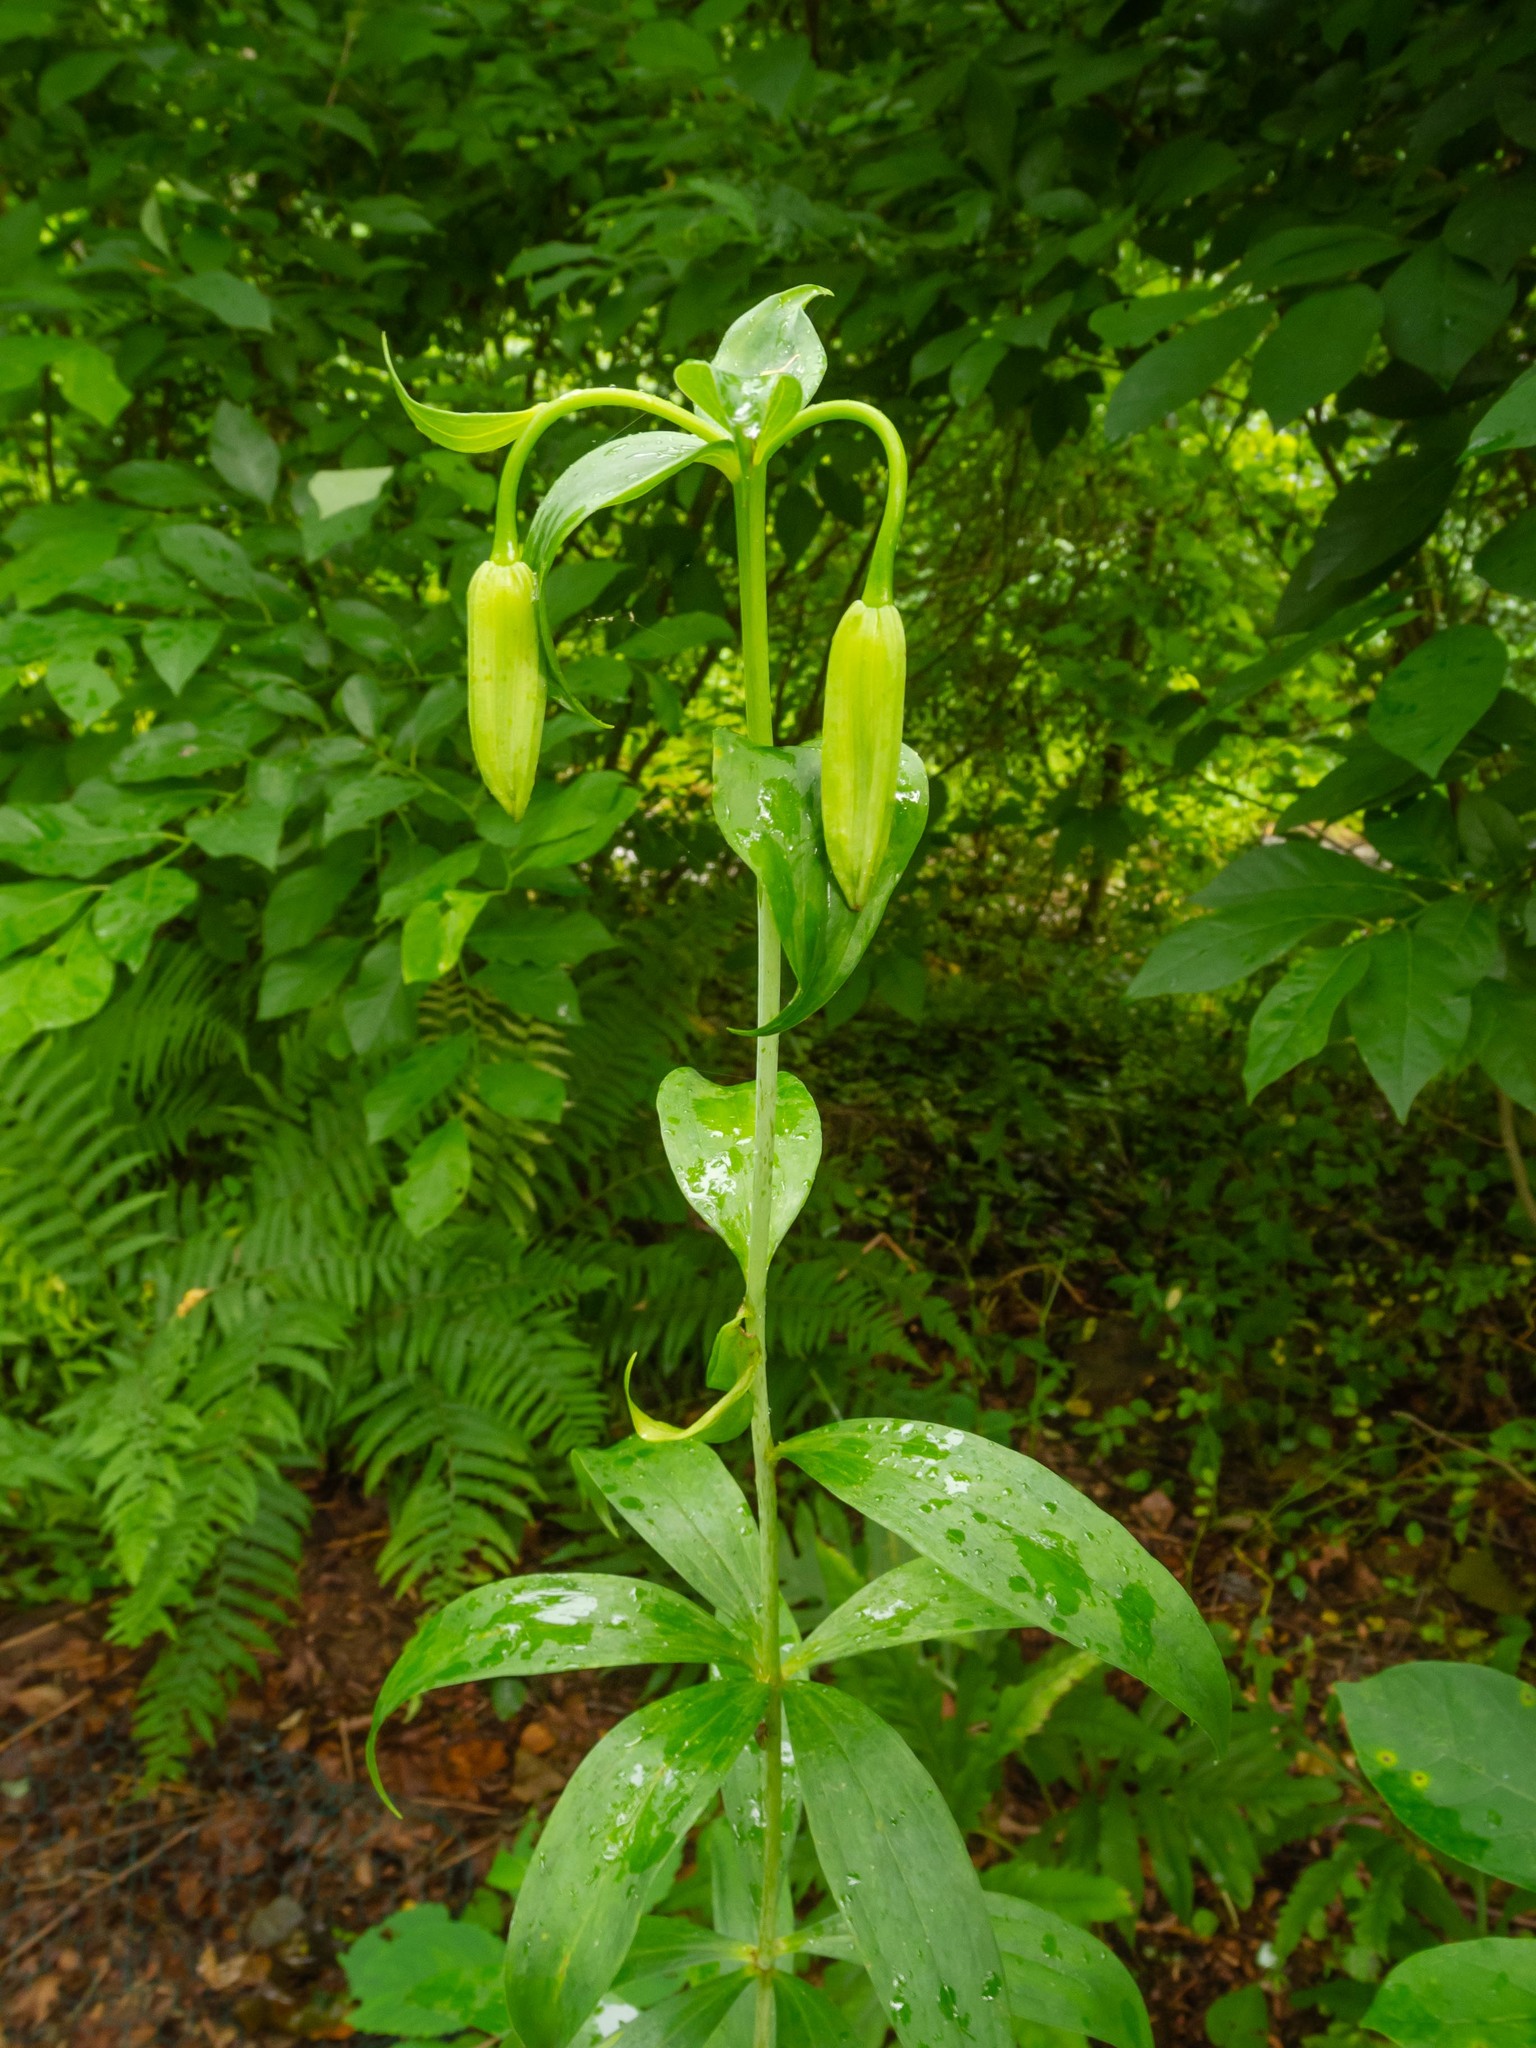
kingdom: Plantae
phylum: Tracheophyta
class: Liliopsida
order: Liliales
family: Liliaceae
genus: Lilium
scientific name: Lilium superbum
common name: American turk's-cap lily
